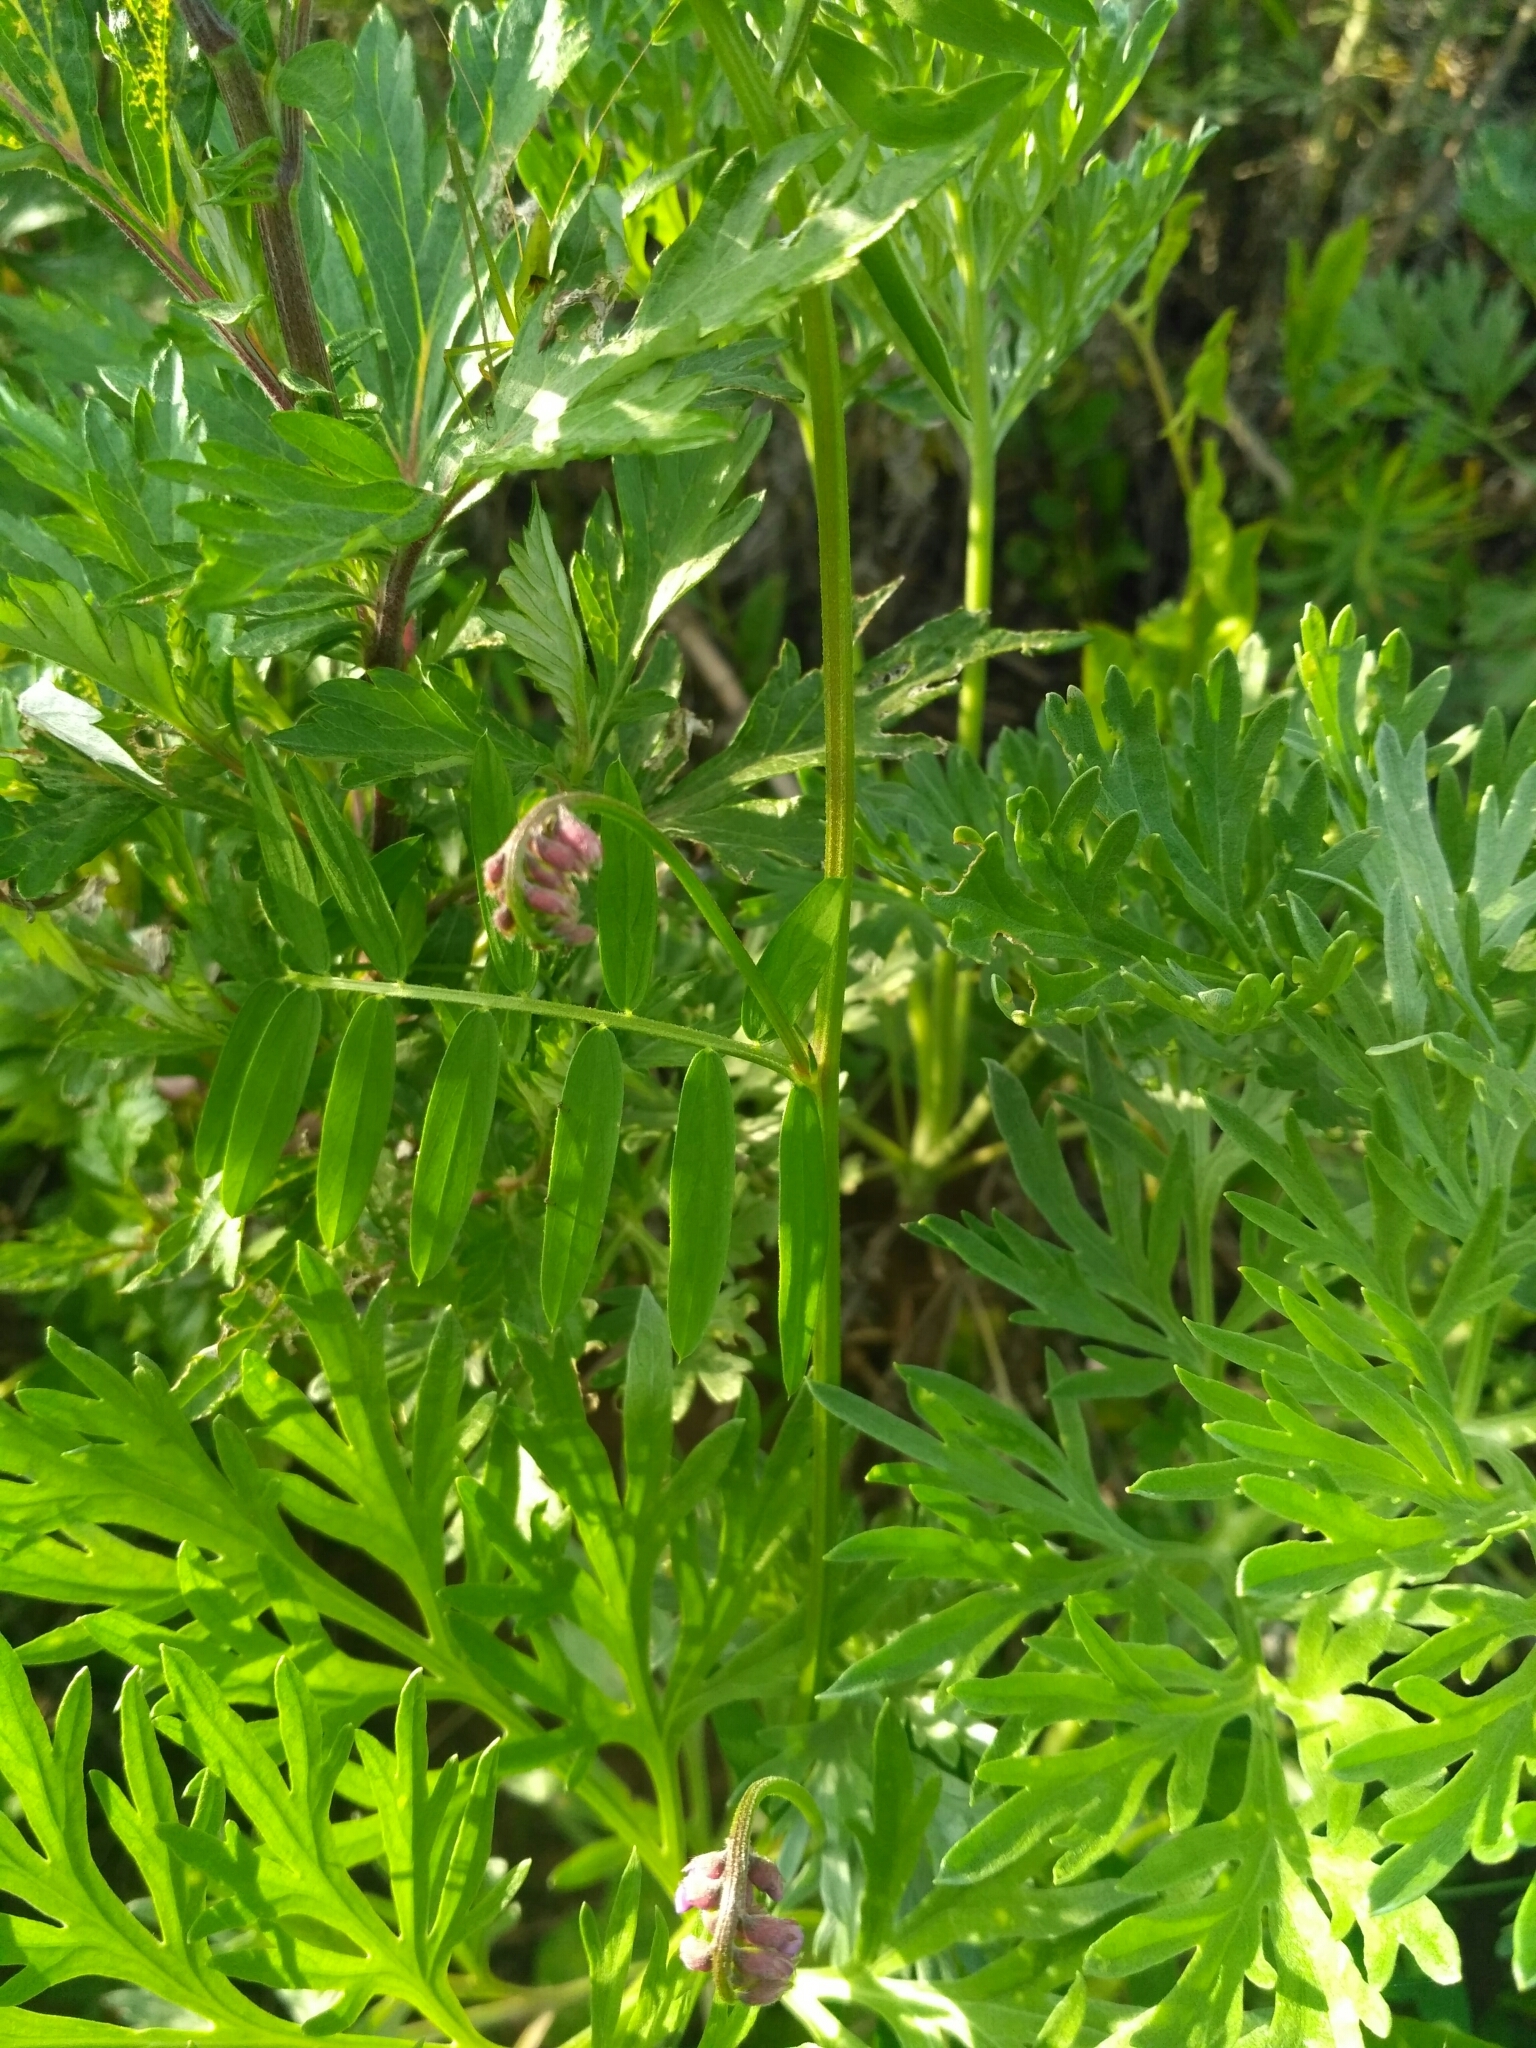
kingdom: Plantae
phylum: Tracheophyta
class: Magnoliopsida
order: Fabales
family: Fabaceae
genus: Vicia
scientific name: Vicia cracca
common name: Bird vetch
